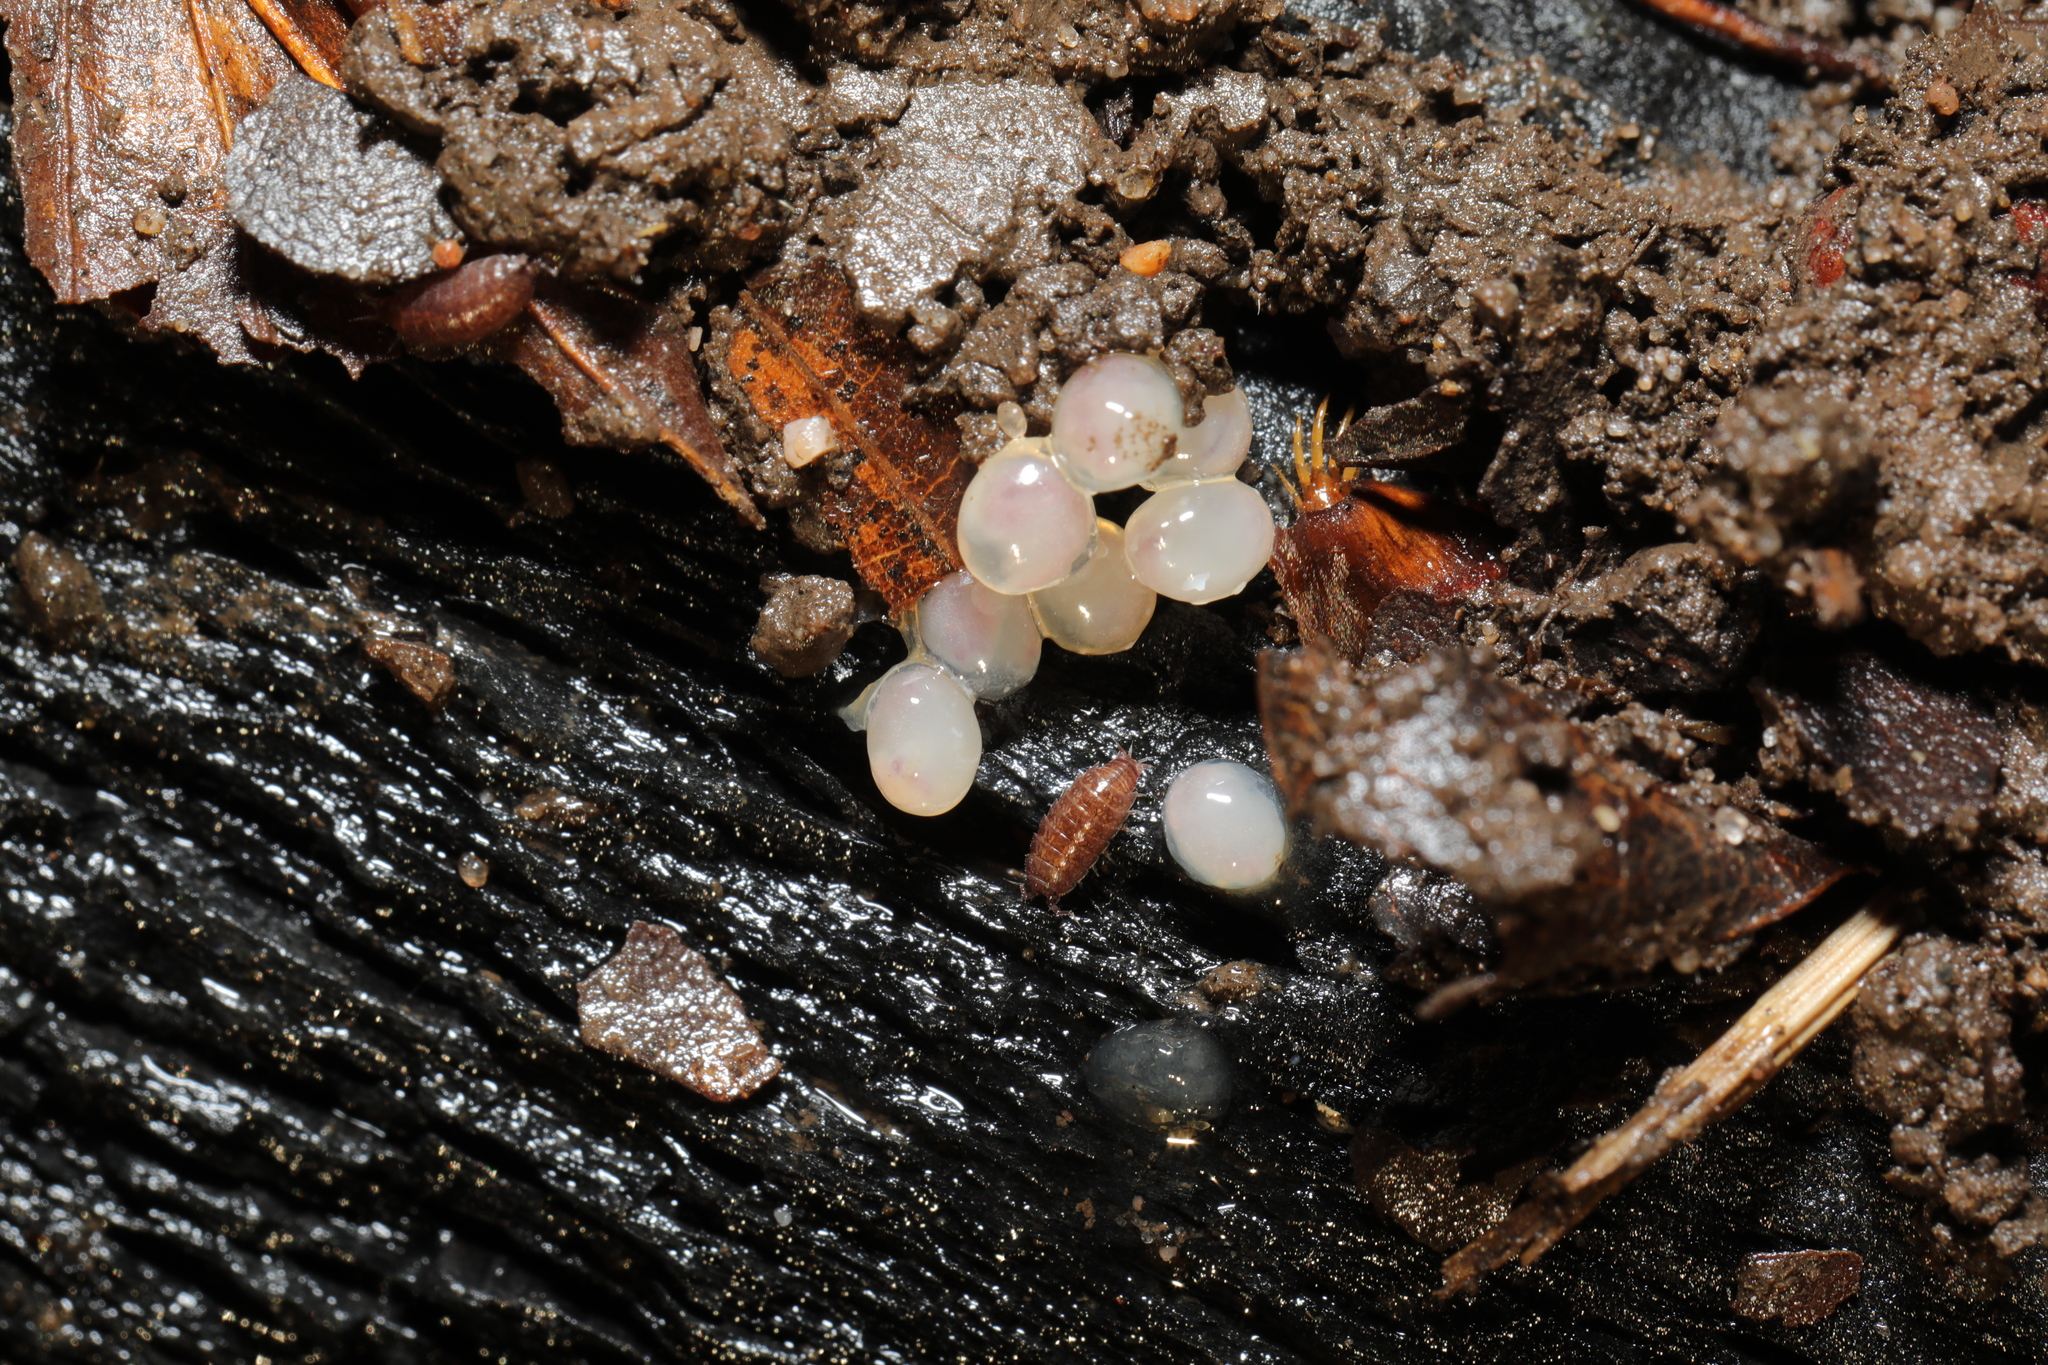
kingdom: Animalia
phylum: Arthropoda
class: Malacostraca
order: Isopoda
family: Trichoniscidae
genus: Trichoniscus
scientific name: Trichoniscus
